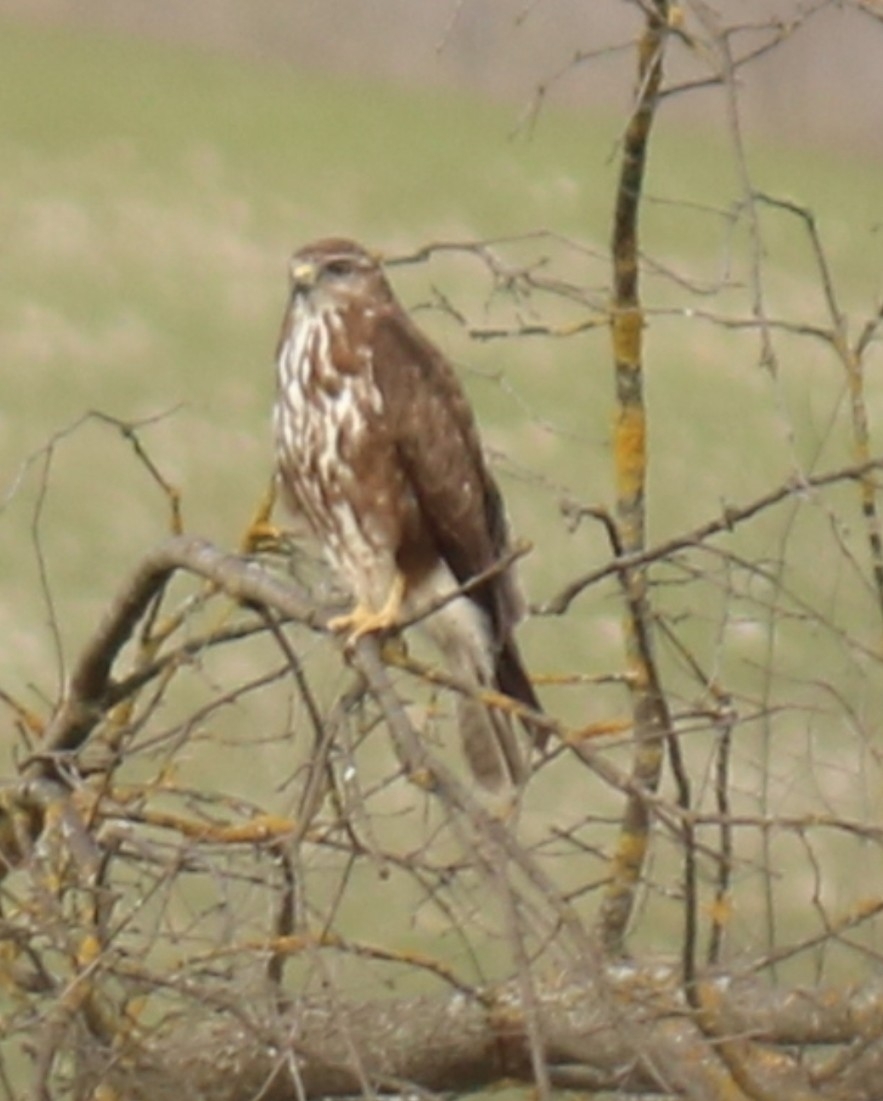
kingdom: Animalia
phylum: Chordata
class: Aves
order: Accipitriformes
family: Accipitridae
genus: Buteo
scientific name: Buteo buteo
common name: Common buzzard
